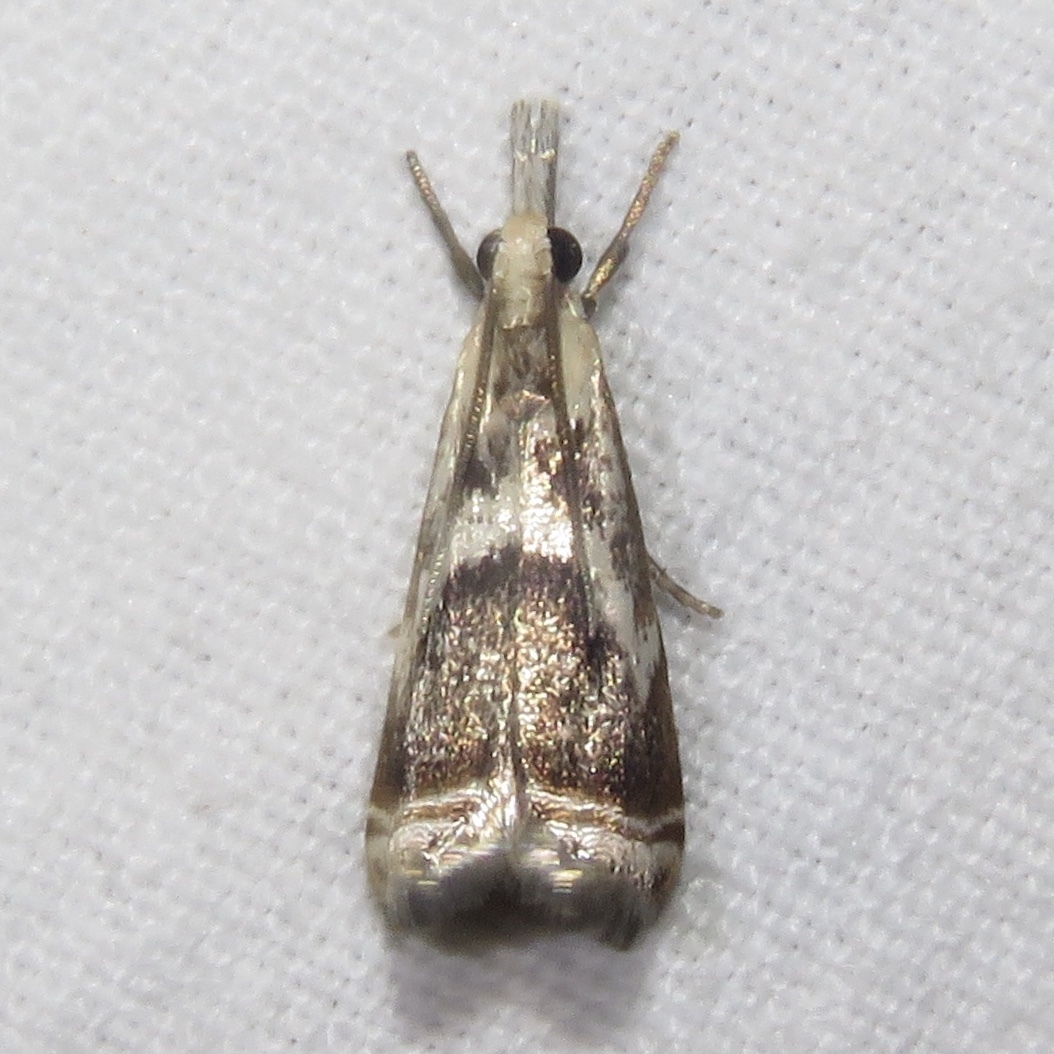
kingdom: Animalia
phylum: Arthropoda
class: Insecta
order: Lepidoptera
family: Crambidae
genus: Microcrambus
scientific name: Microcrambus elegans
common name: Elegant grass-veneer
